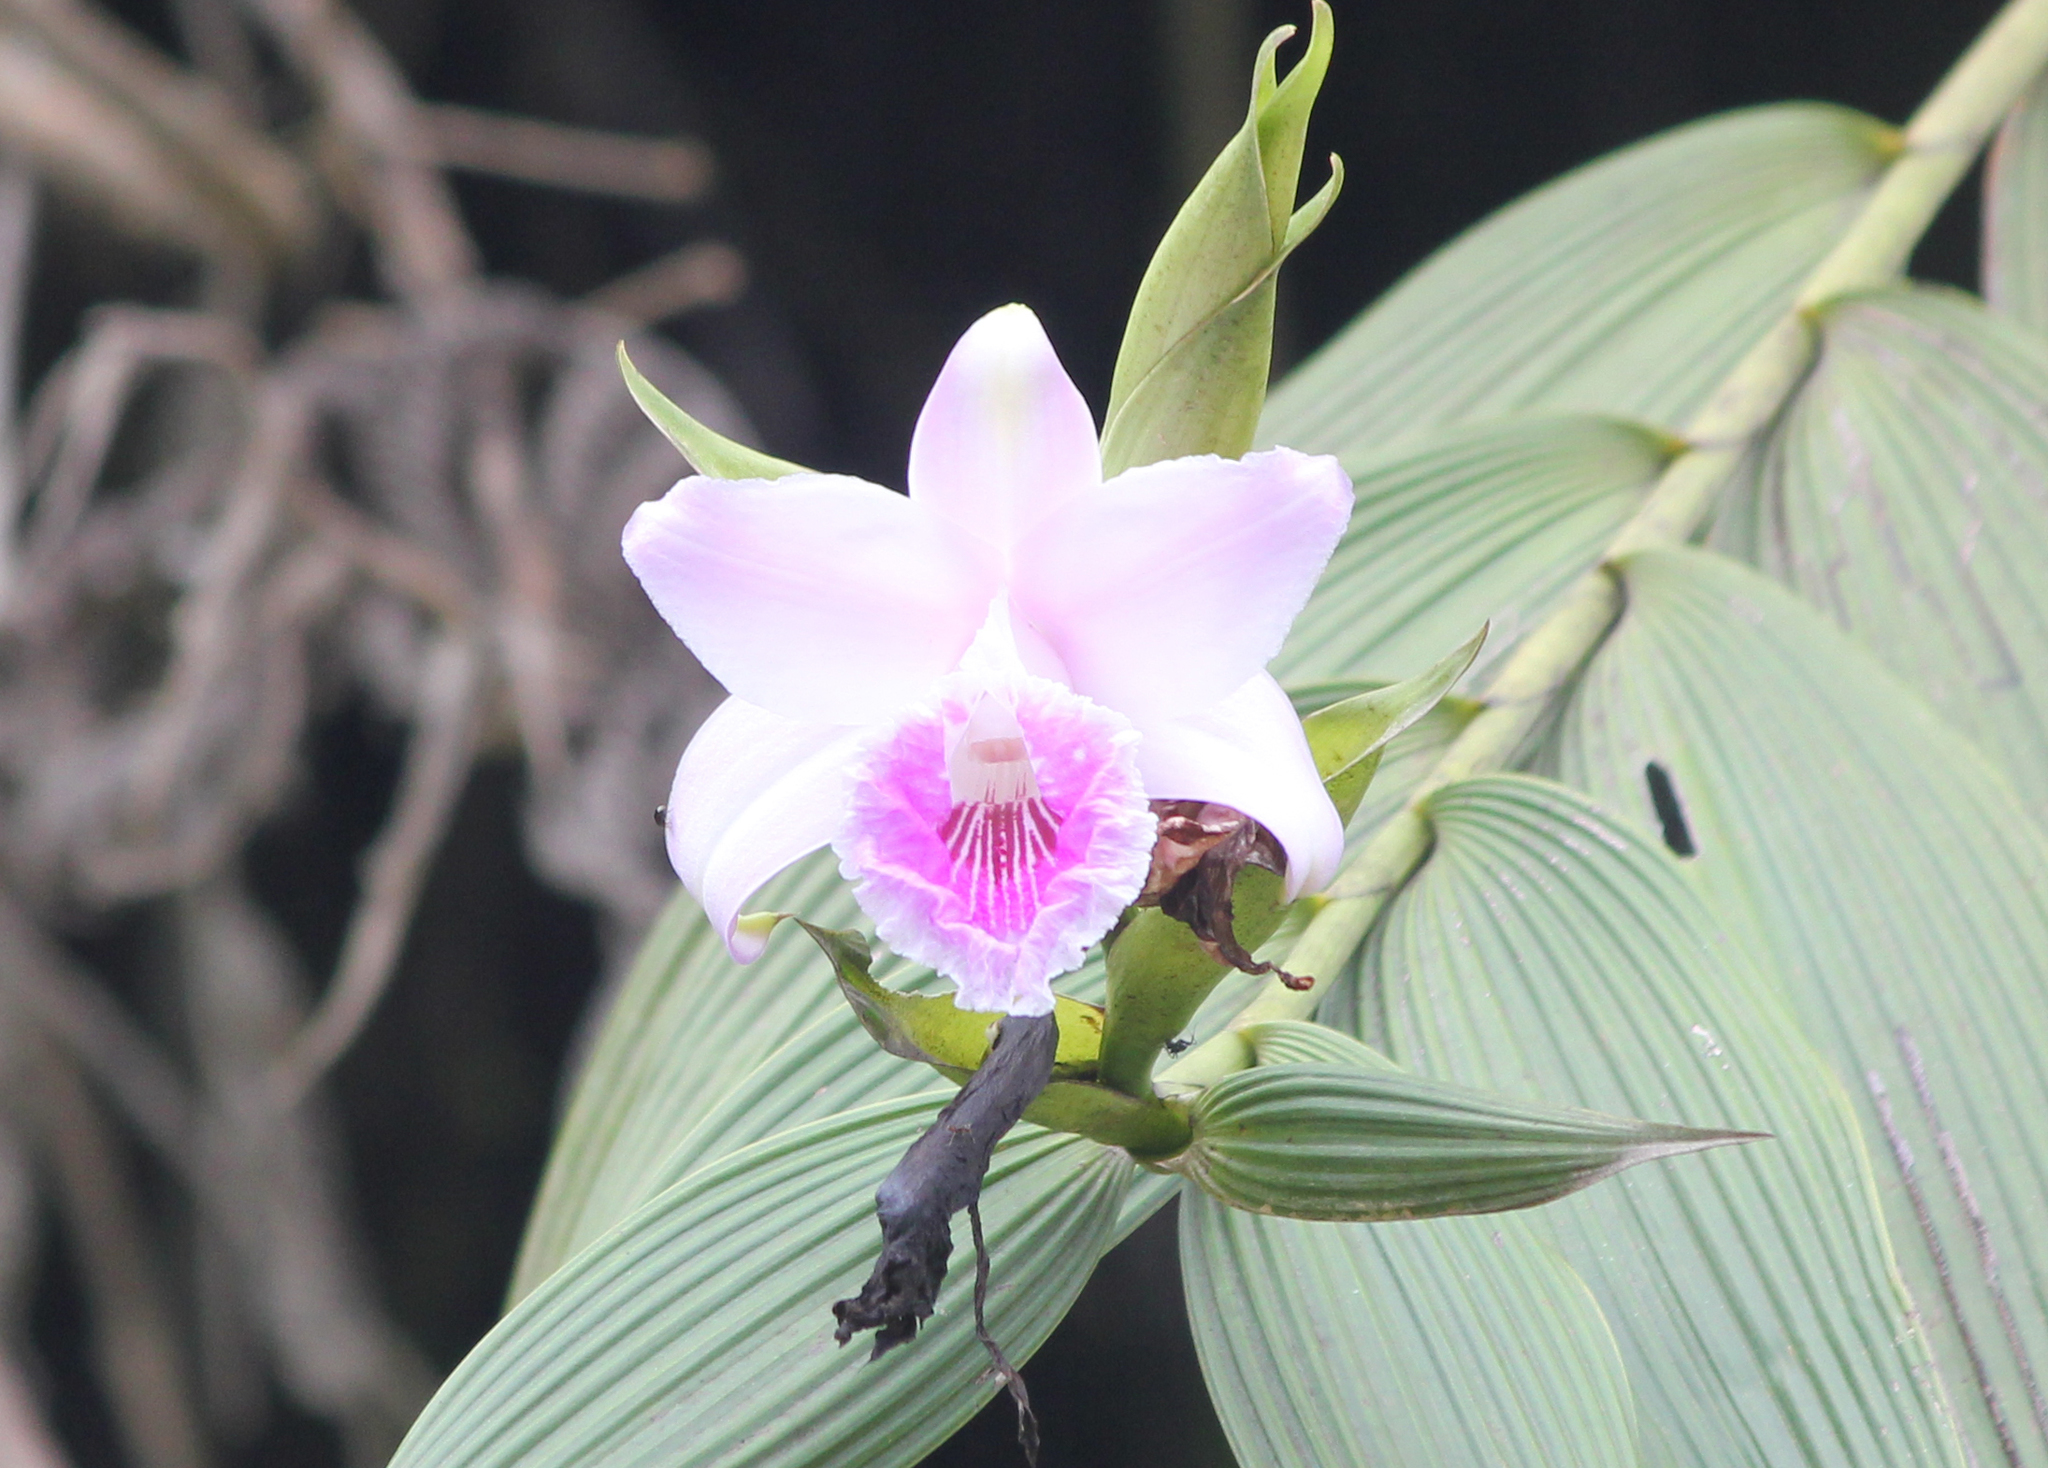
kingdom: Plantae
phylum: Tracheophyta
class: Liliopsida
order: Asparagales
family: Orchidaceae
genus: Sobralia
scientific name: Sobralia pulcherrima
